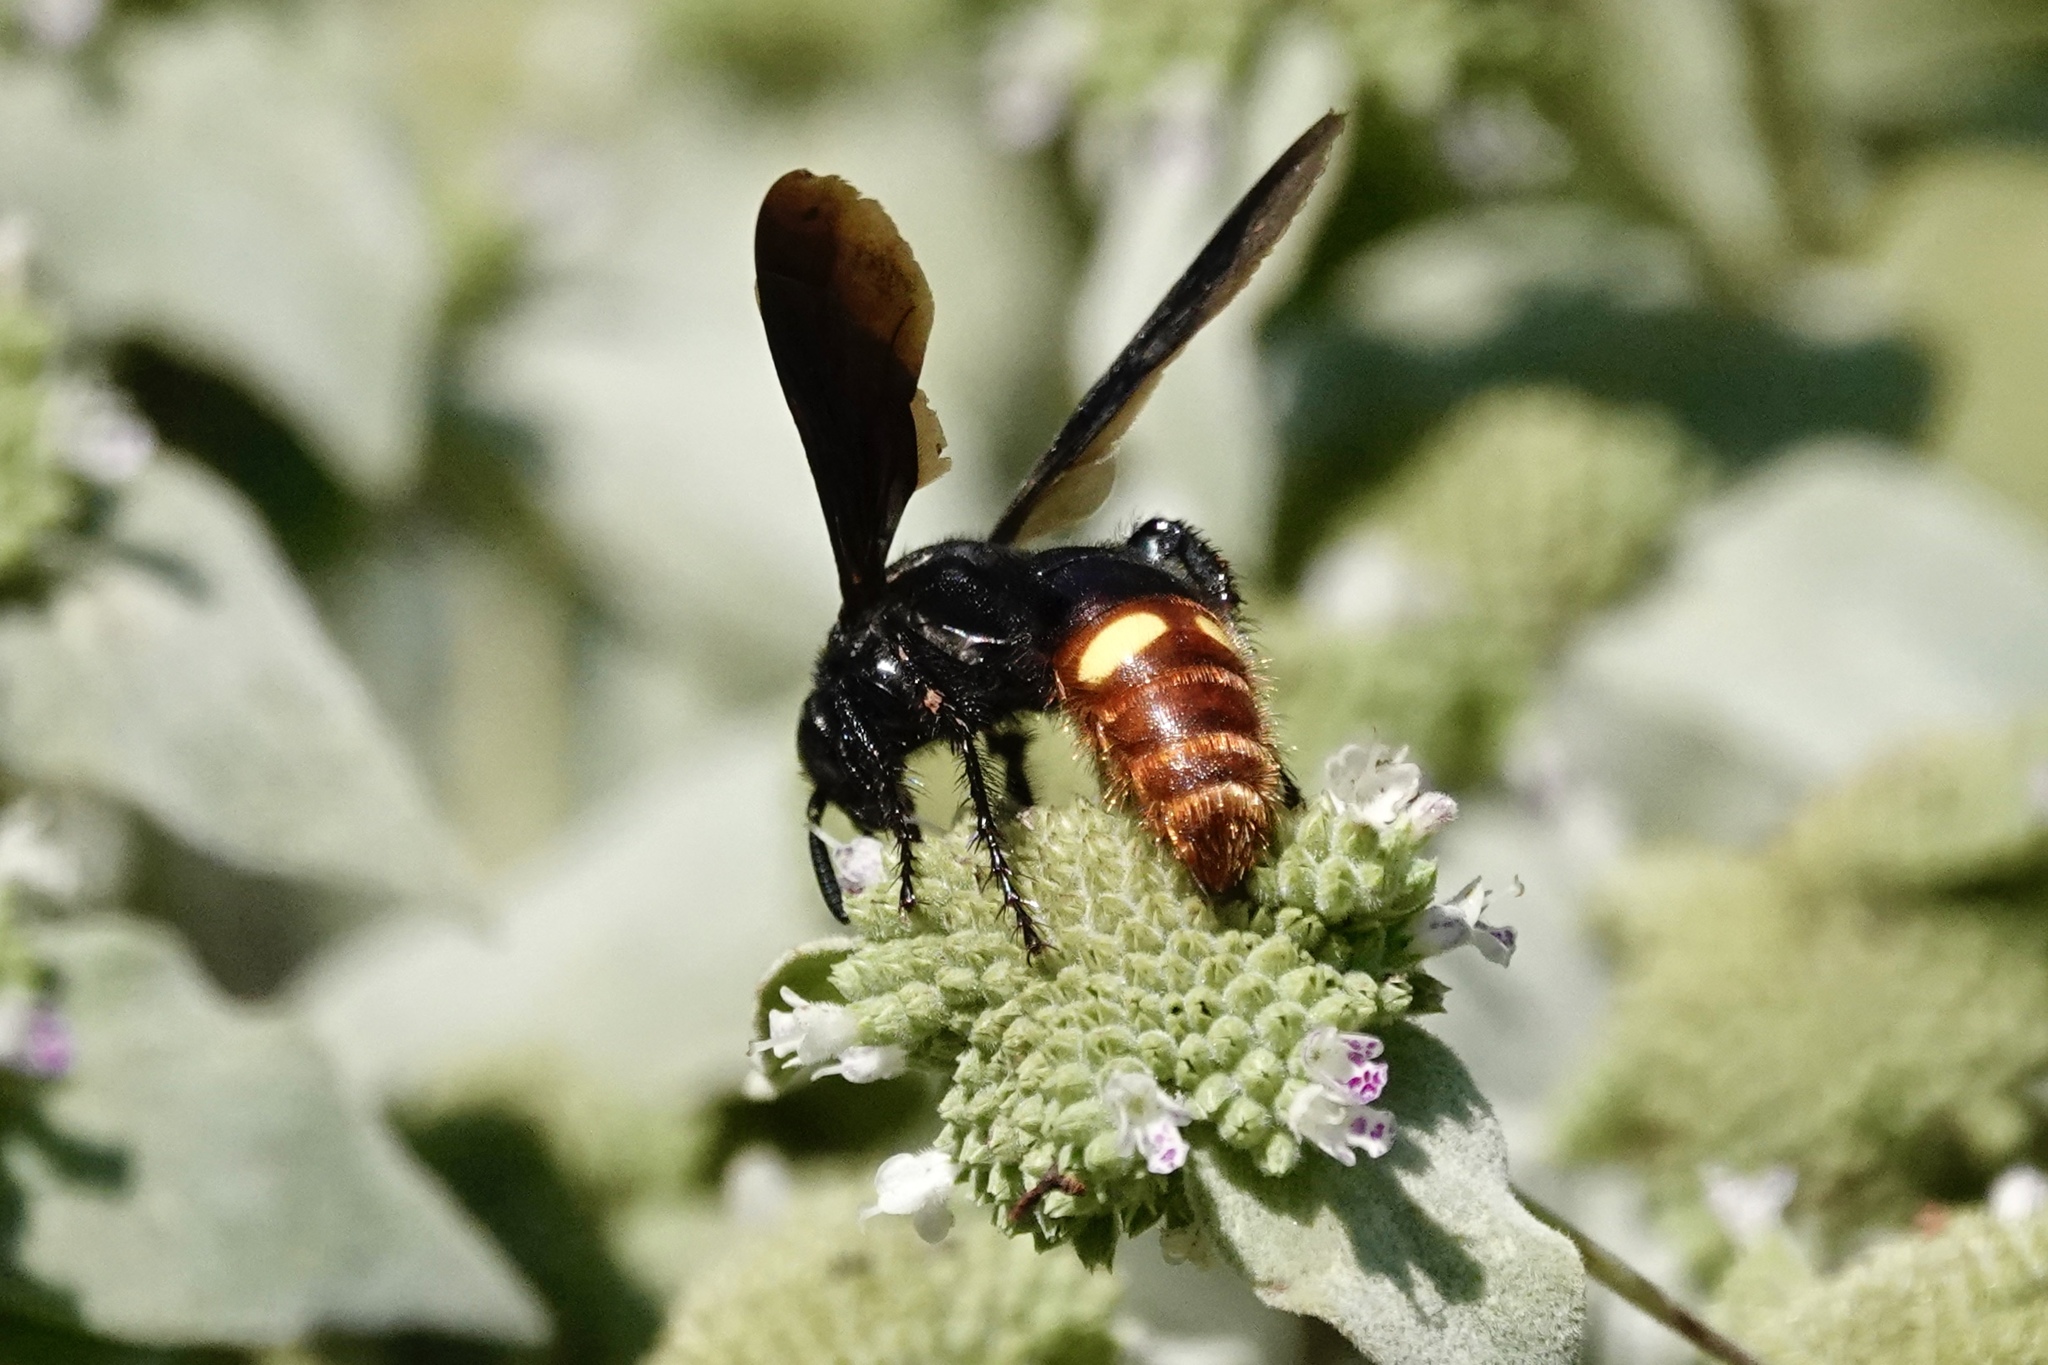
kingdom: Animalia
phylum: Arthropoda
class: Insecta
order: Hymenoptera
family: Scoliidae
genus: Scolia
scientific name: Scolia dubia
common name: Blue-winged scoliid wasp
